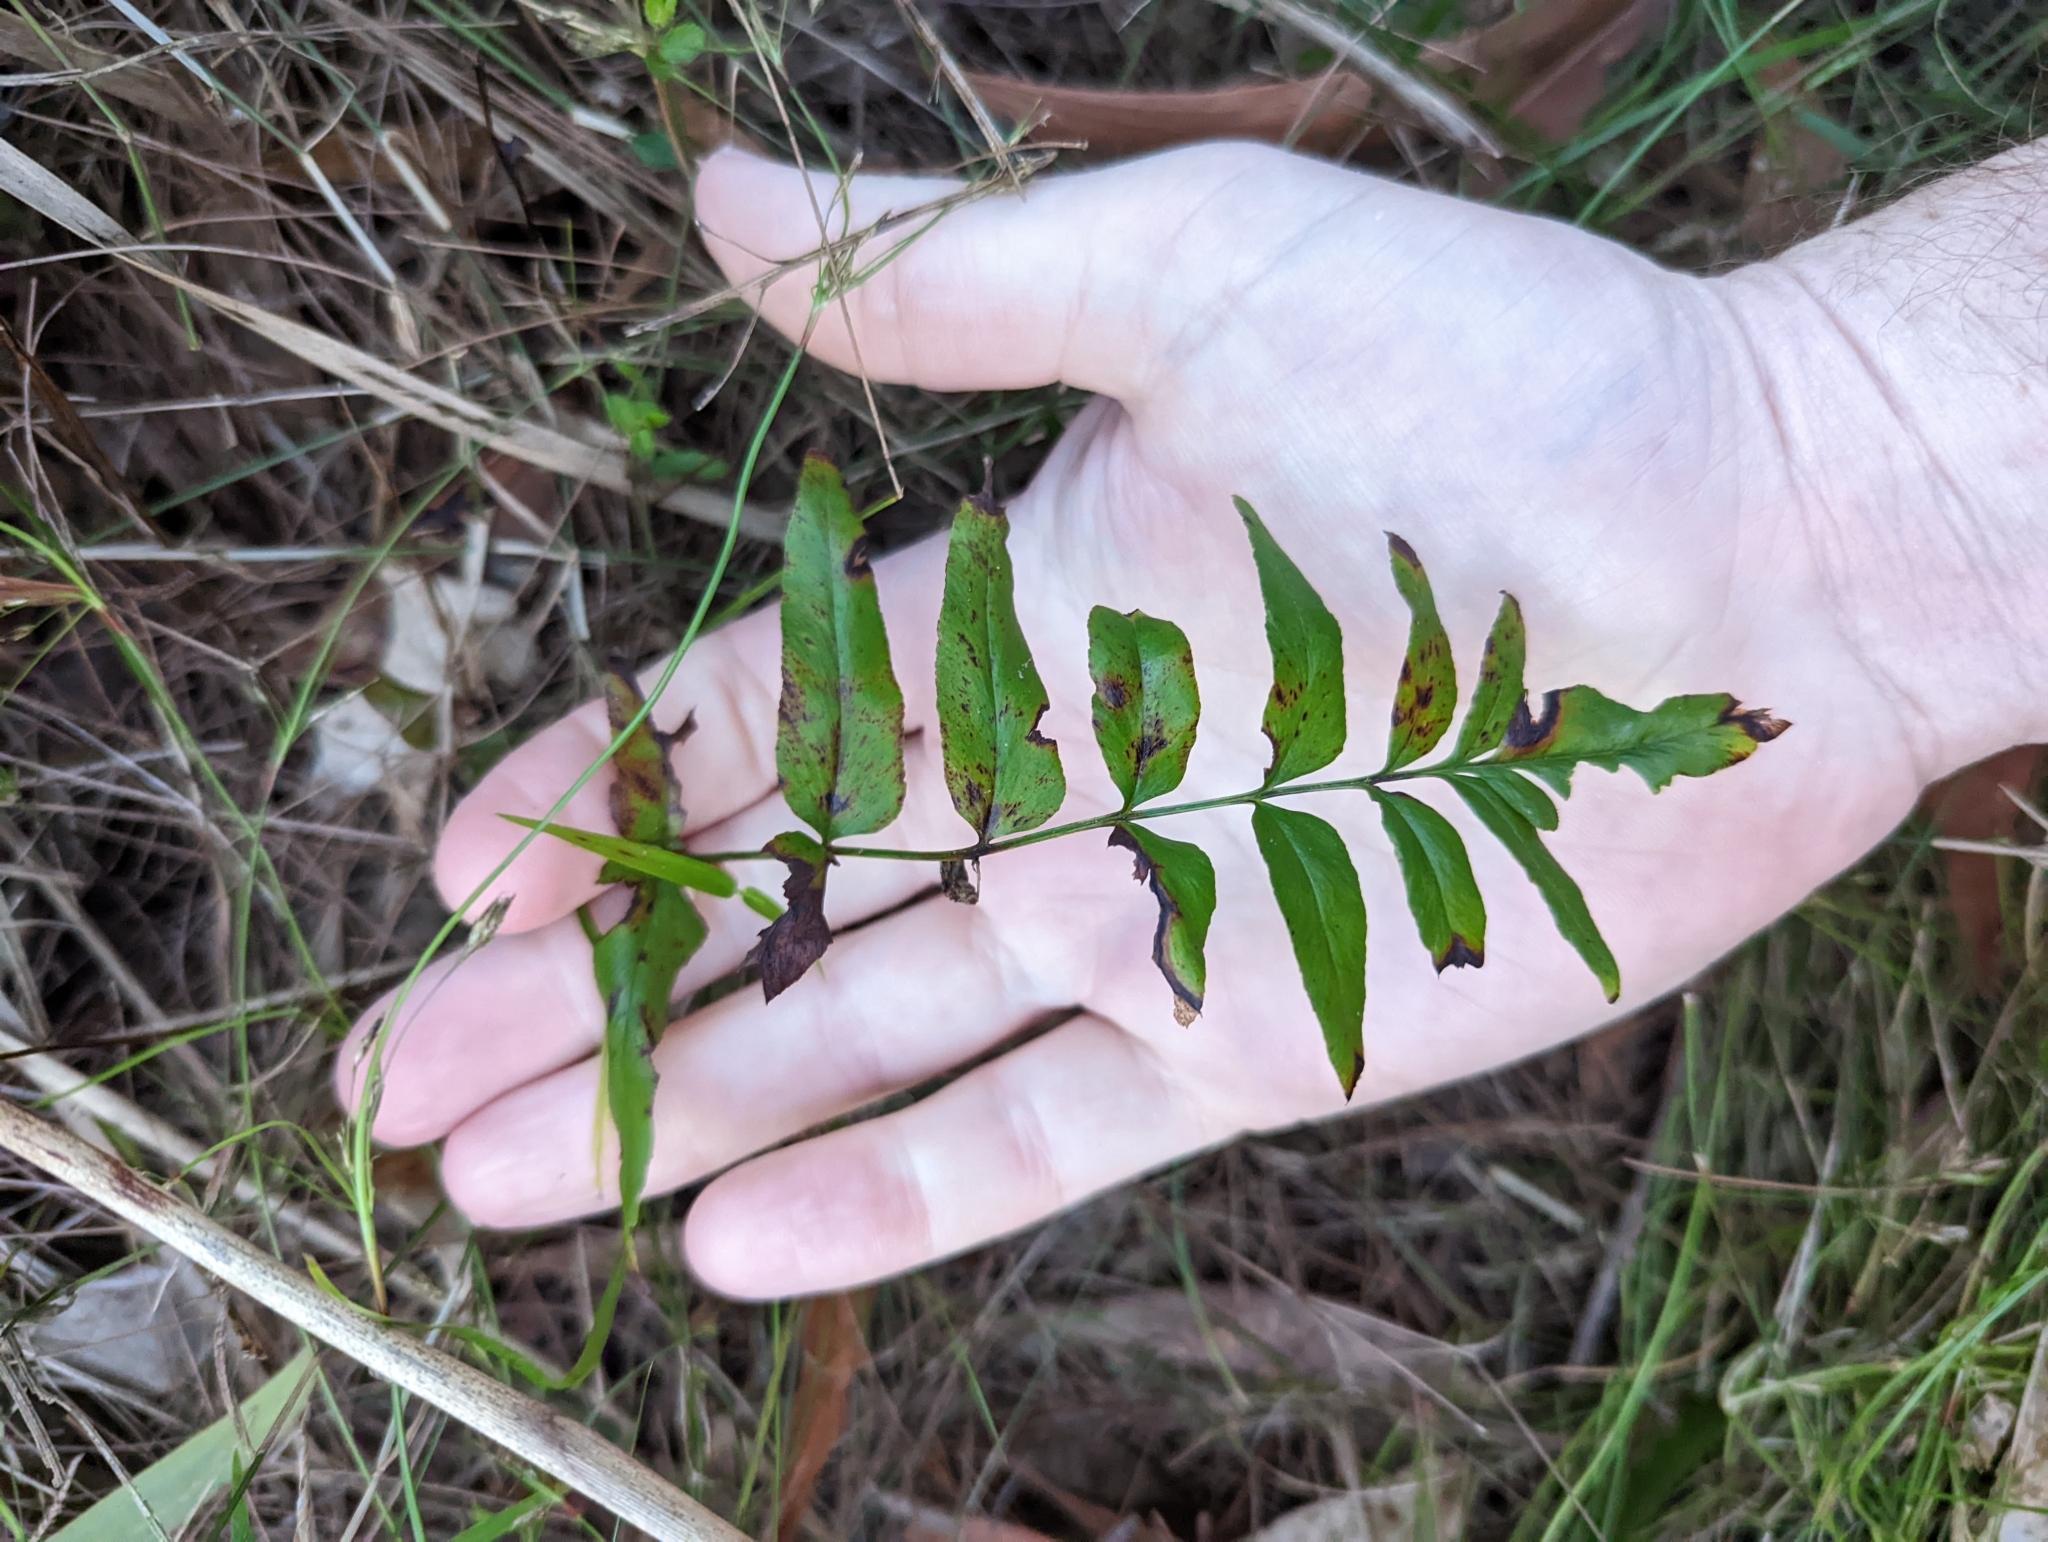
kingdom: Plantae
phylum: Tracheophyta
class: Polypodiopsida
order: Polypodiales
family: Lindsaeaceae
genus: Lindsaea
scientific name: Lindsaea ensifolia
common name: Graceful necklace fern
